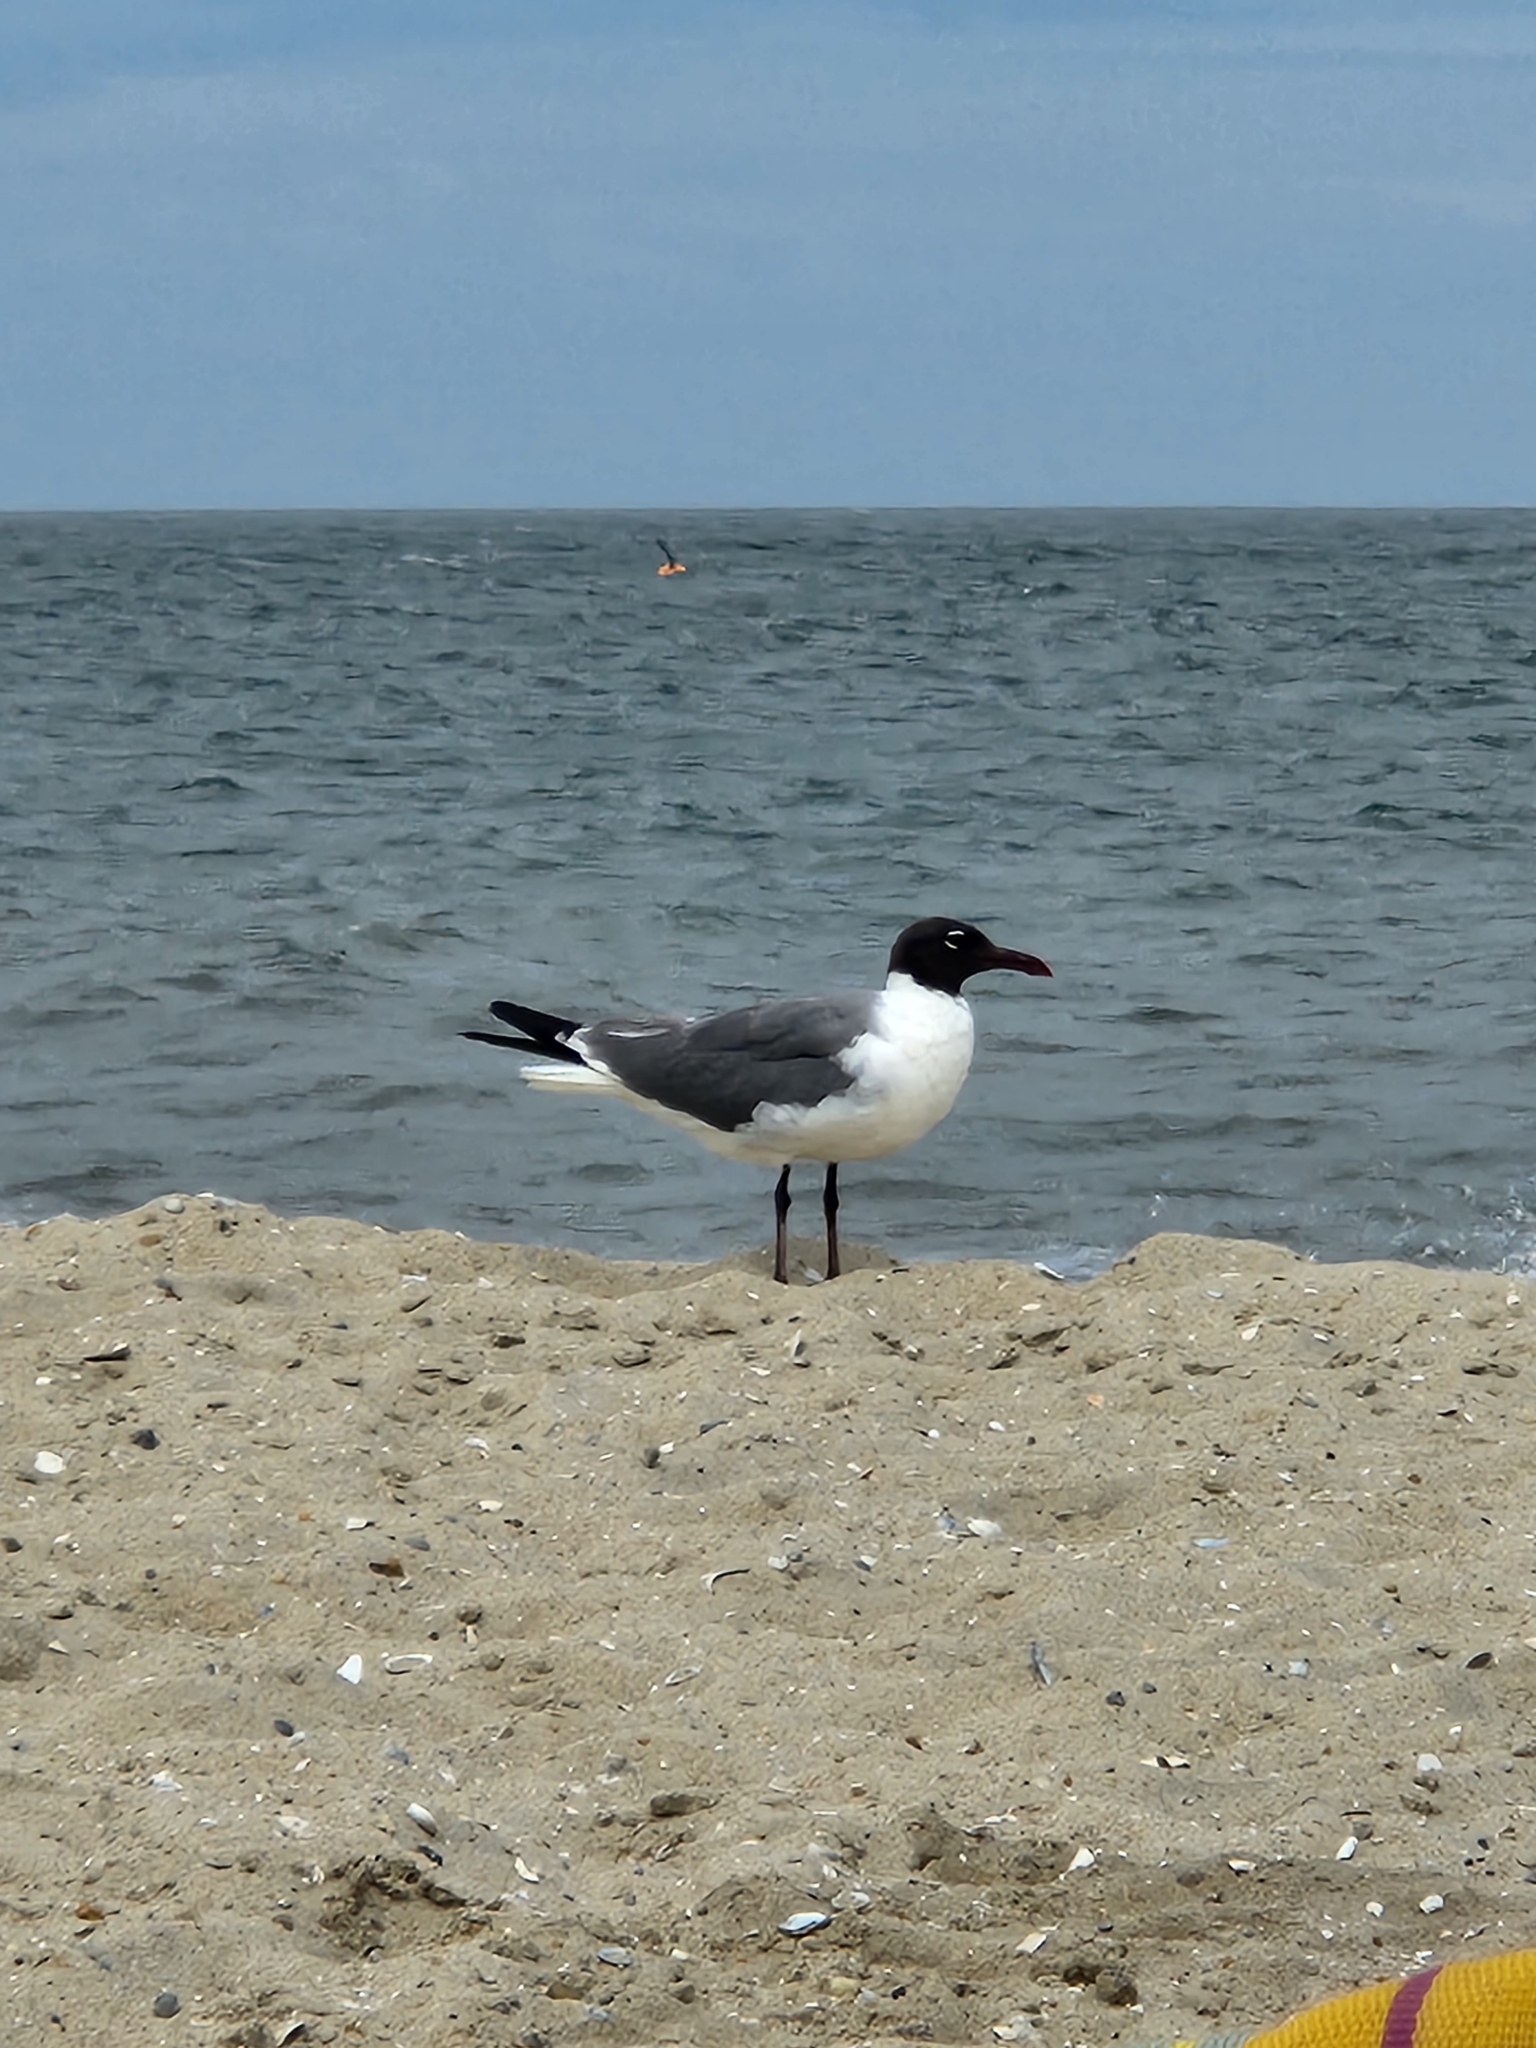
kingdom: Animalia
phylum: Chordata
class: Aves
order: Charadriiformes
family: Laridae
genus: Leucophaeus
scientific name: Leucophaeus atricilla
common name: Laughing gull
